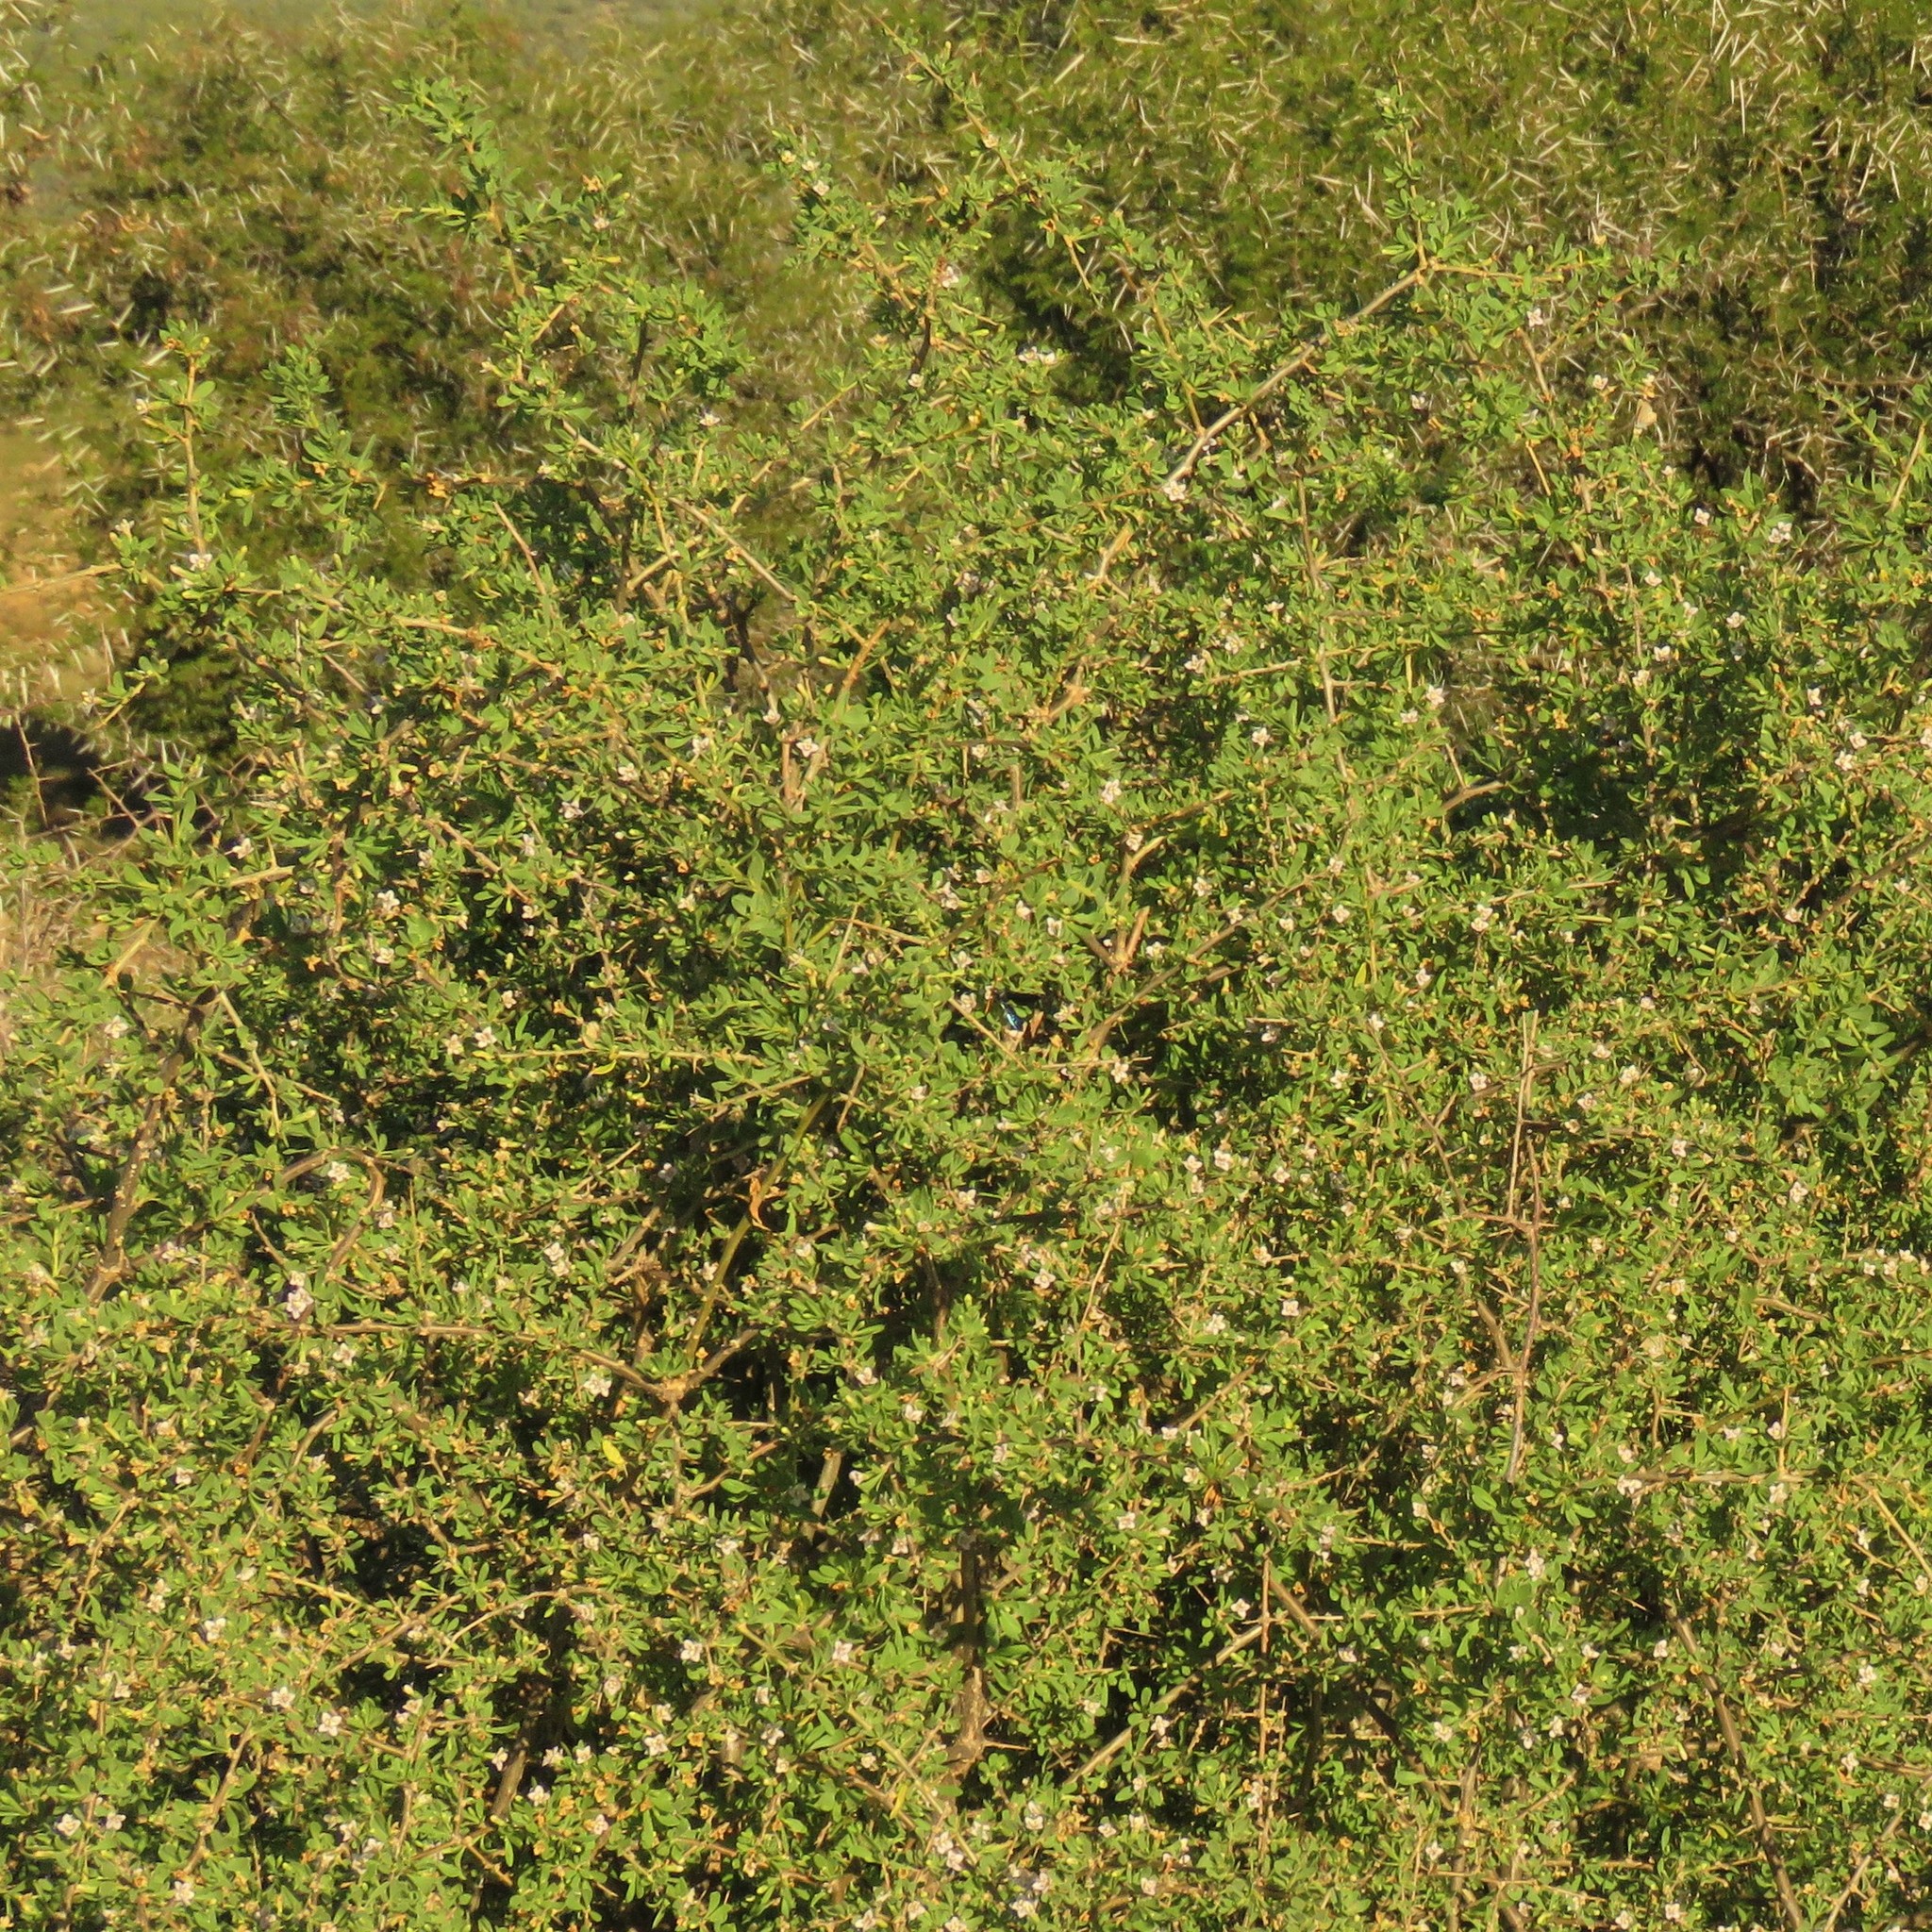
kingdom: Plantae
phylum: Tracheophyta
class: Magnoliopsida
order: Solanales
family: Solanaceae
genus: Lycium
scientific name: Lycium ferocissimum
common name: African boxthorn
